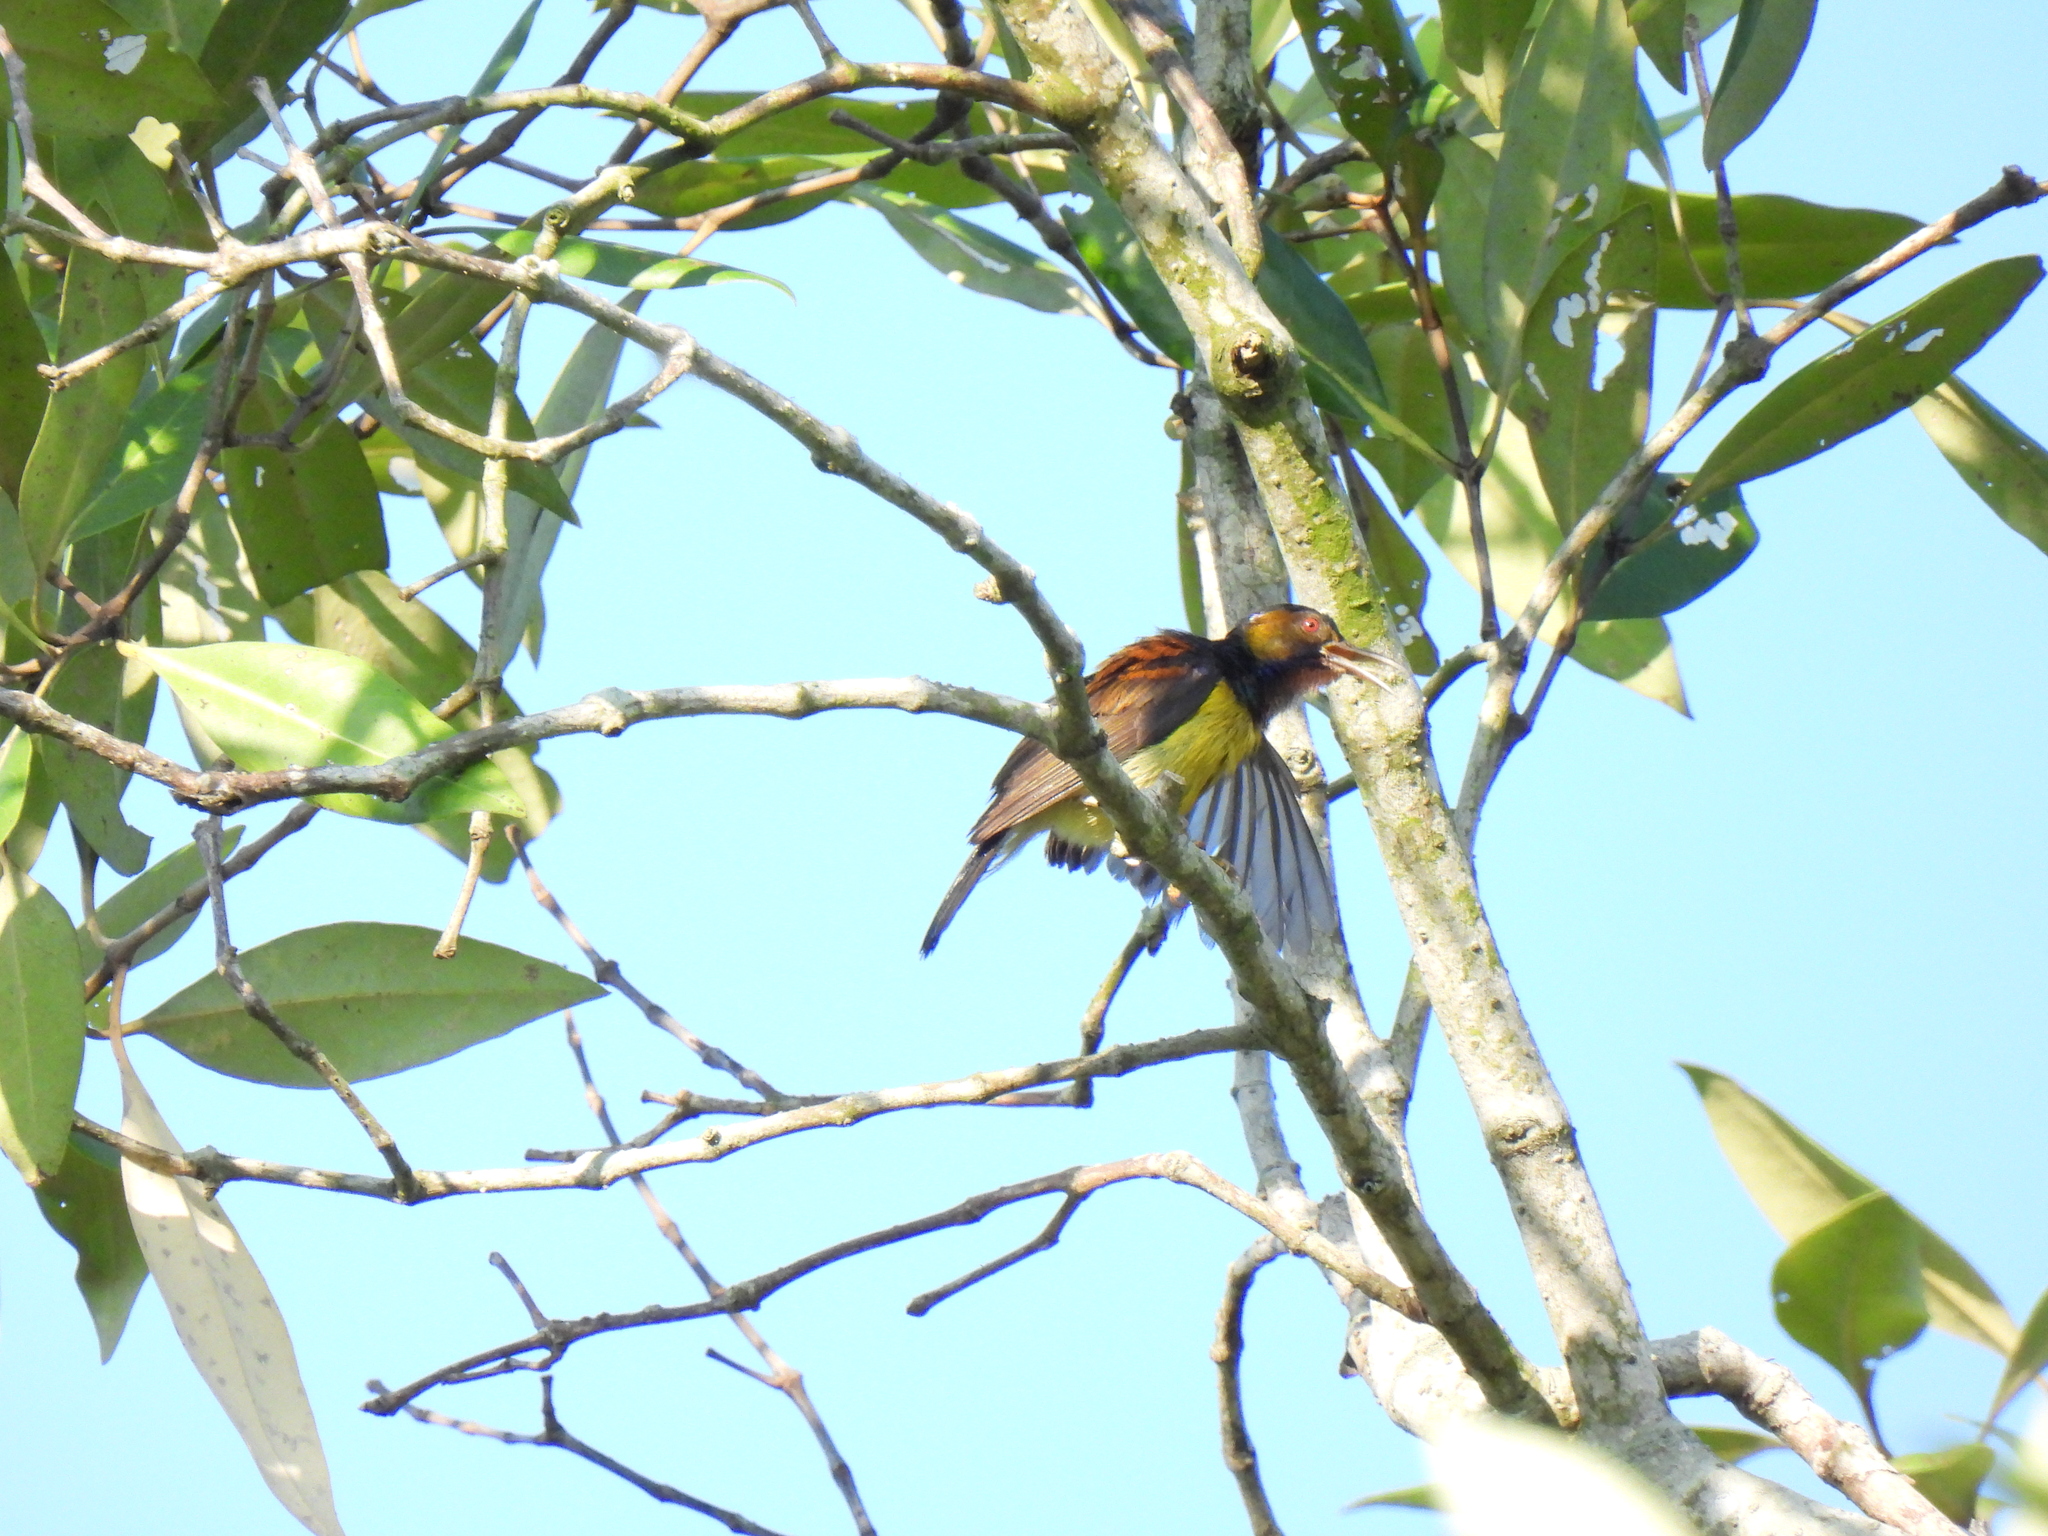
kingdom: Animalia
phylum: Chordata
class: Aves
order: Passeriformes
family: Nectariniidae
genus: Anthreptes
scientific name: Anthreptes malacensis
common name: Brown-throated sunbird
